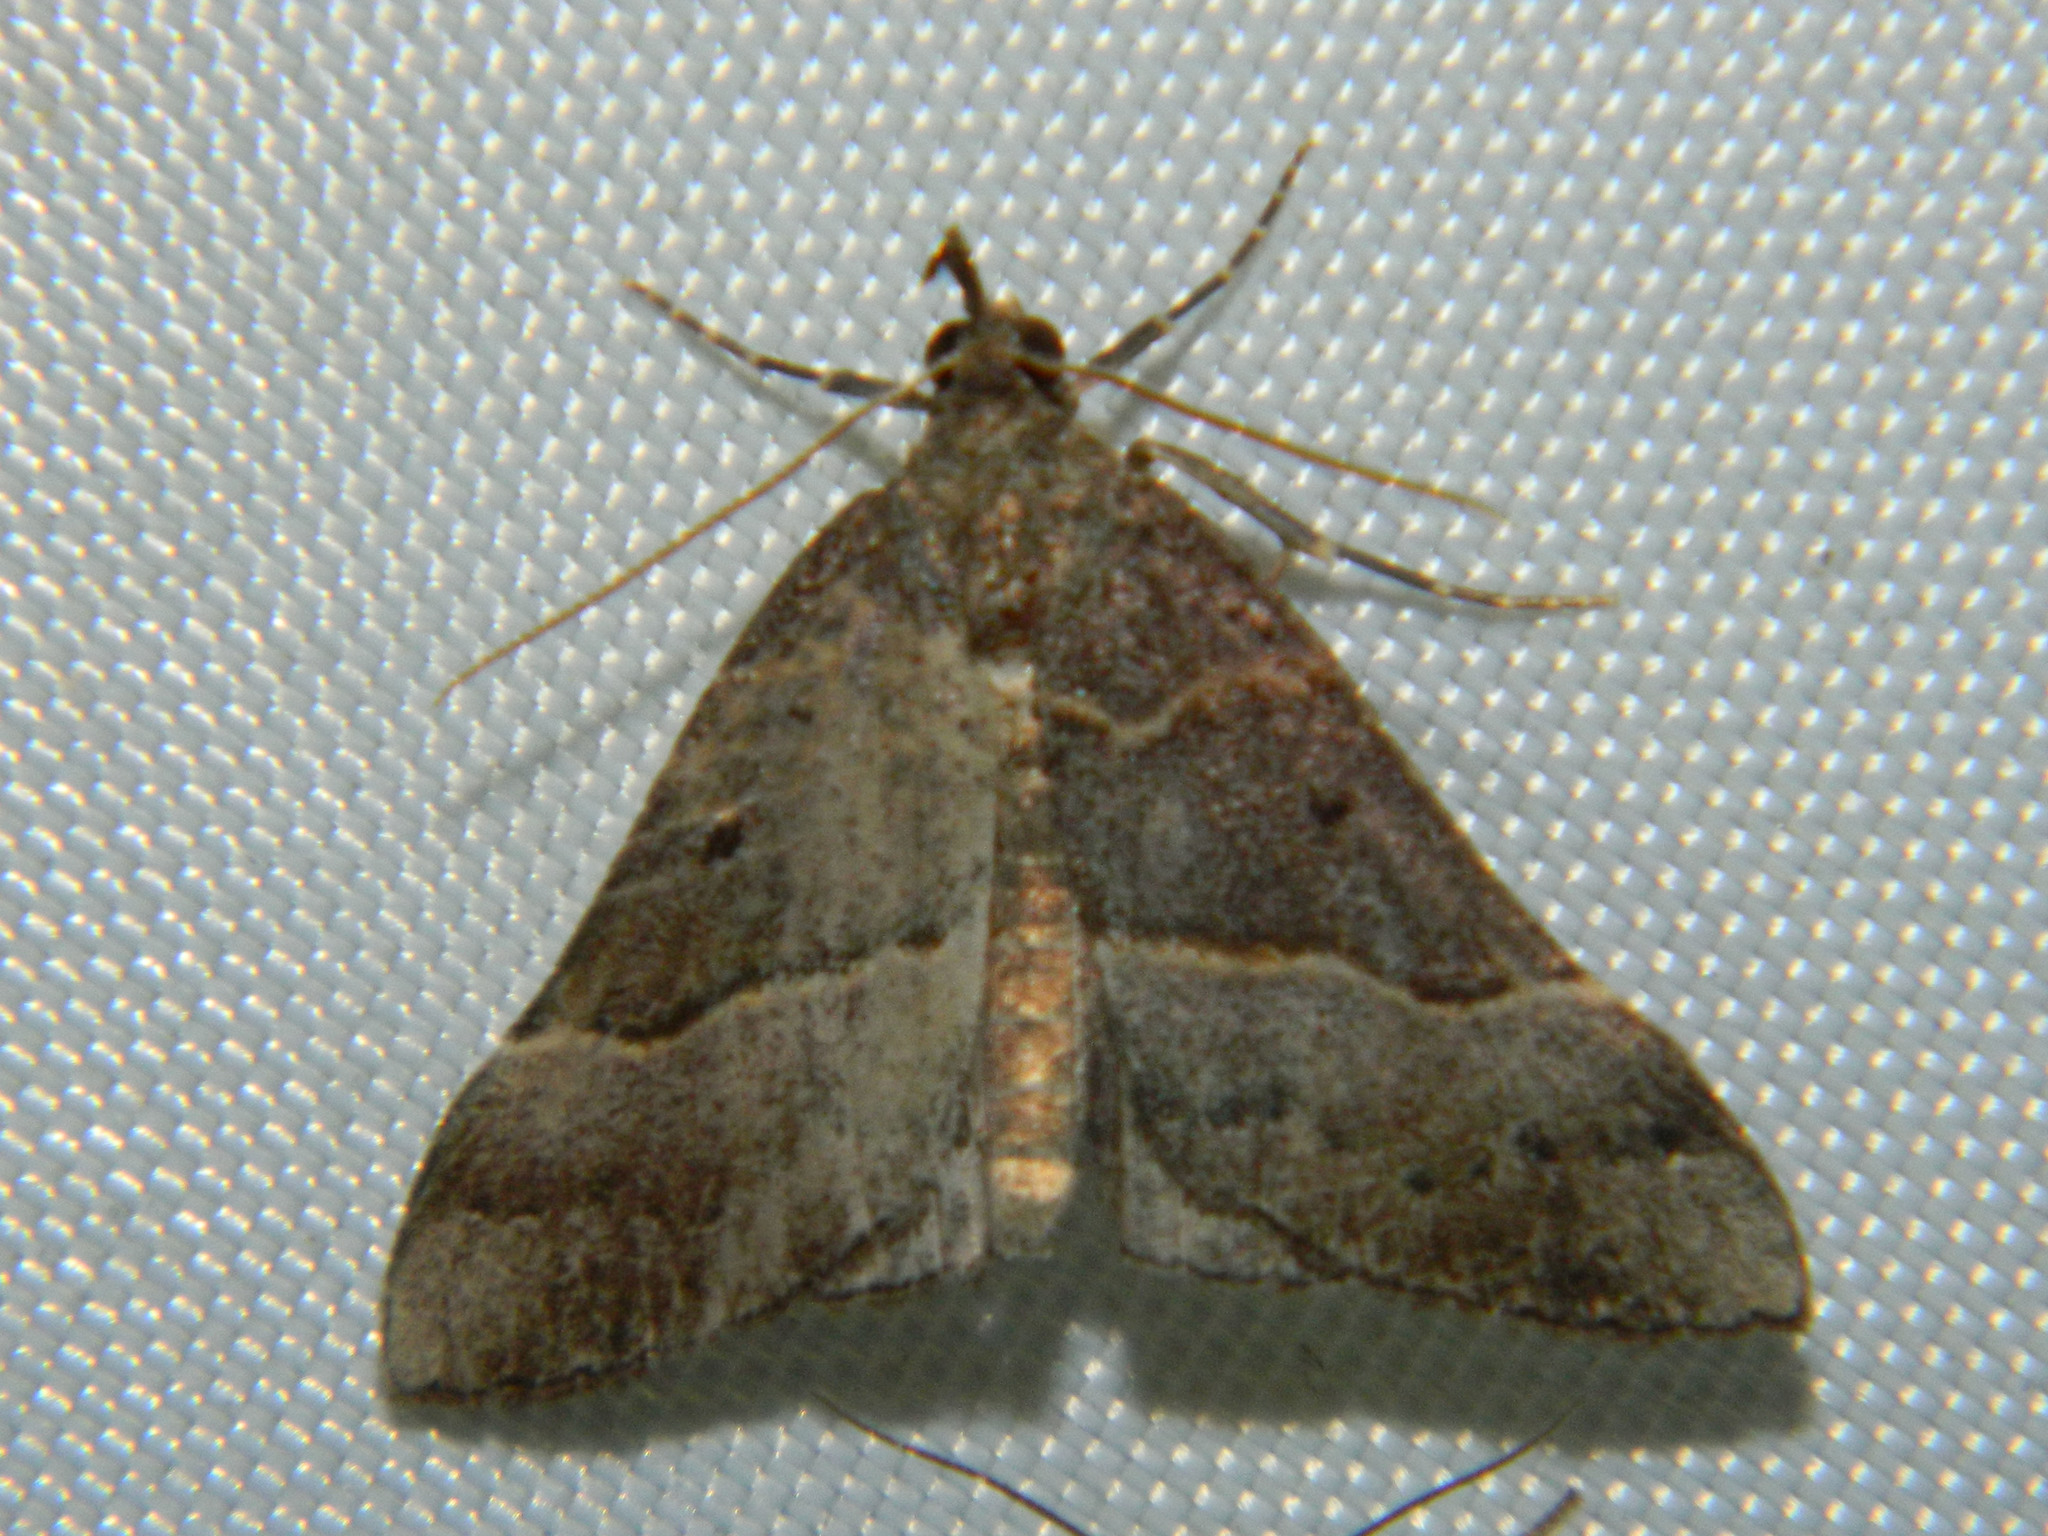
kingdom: Animalia
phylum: Arthropoda
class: Insecta
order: Lepidoptera
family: Erebidae
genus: Hypena
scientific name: Hypena eductalis
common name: Red-footed snout
